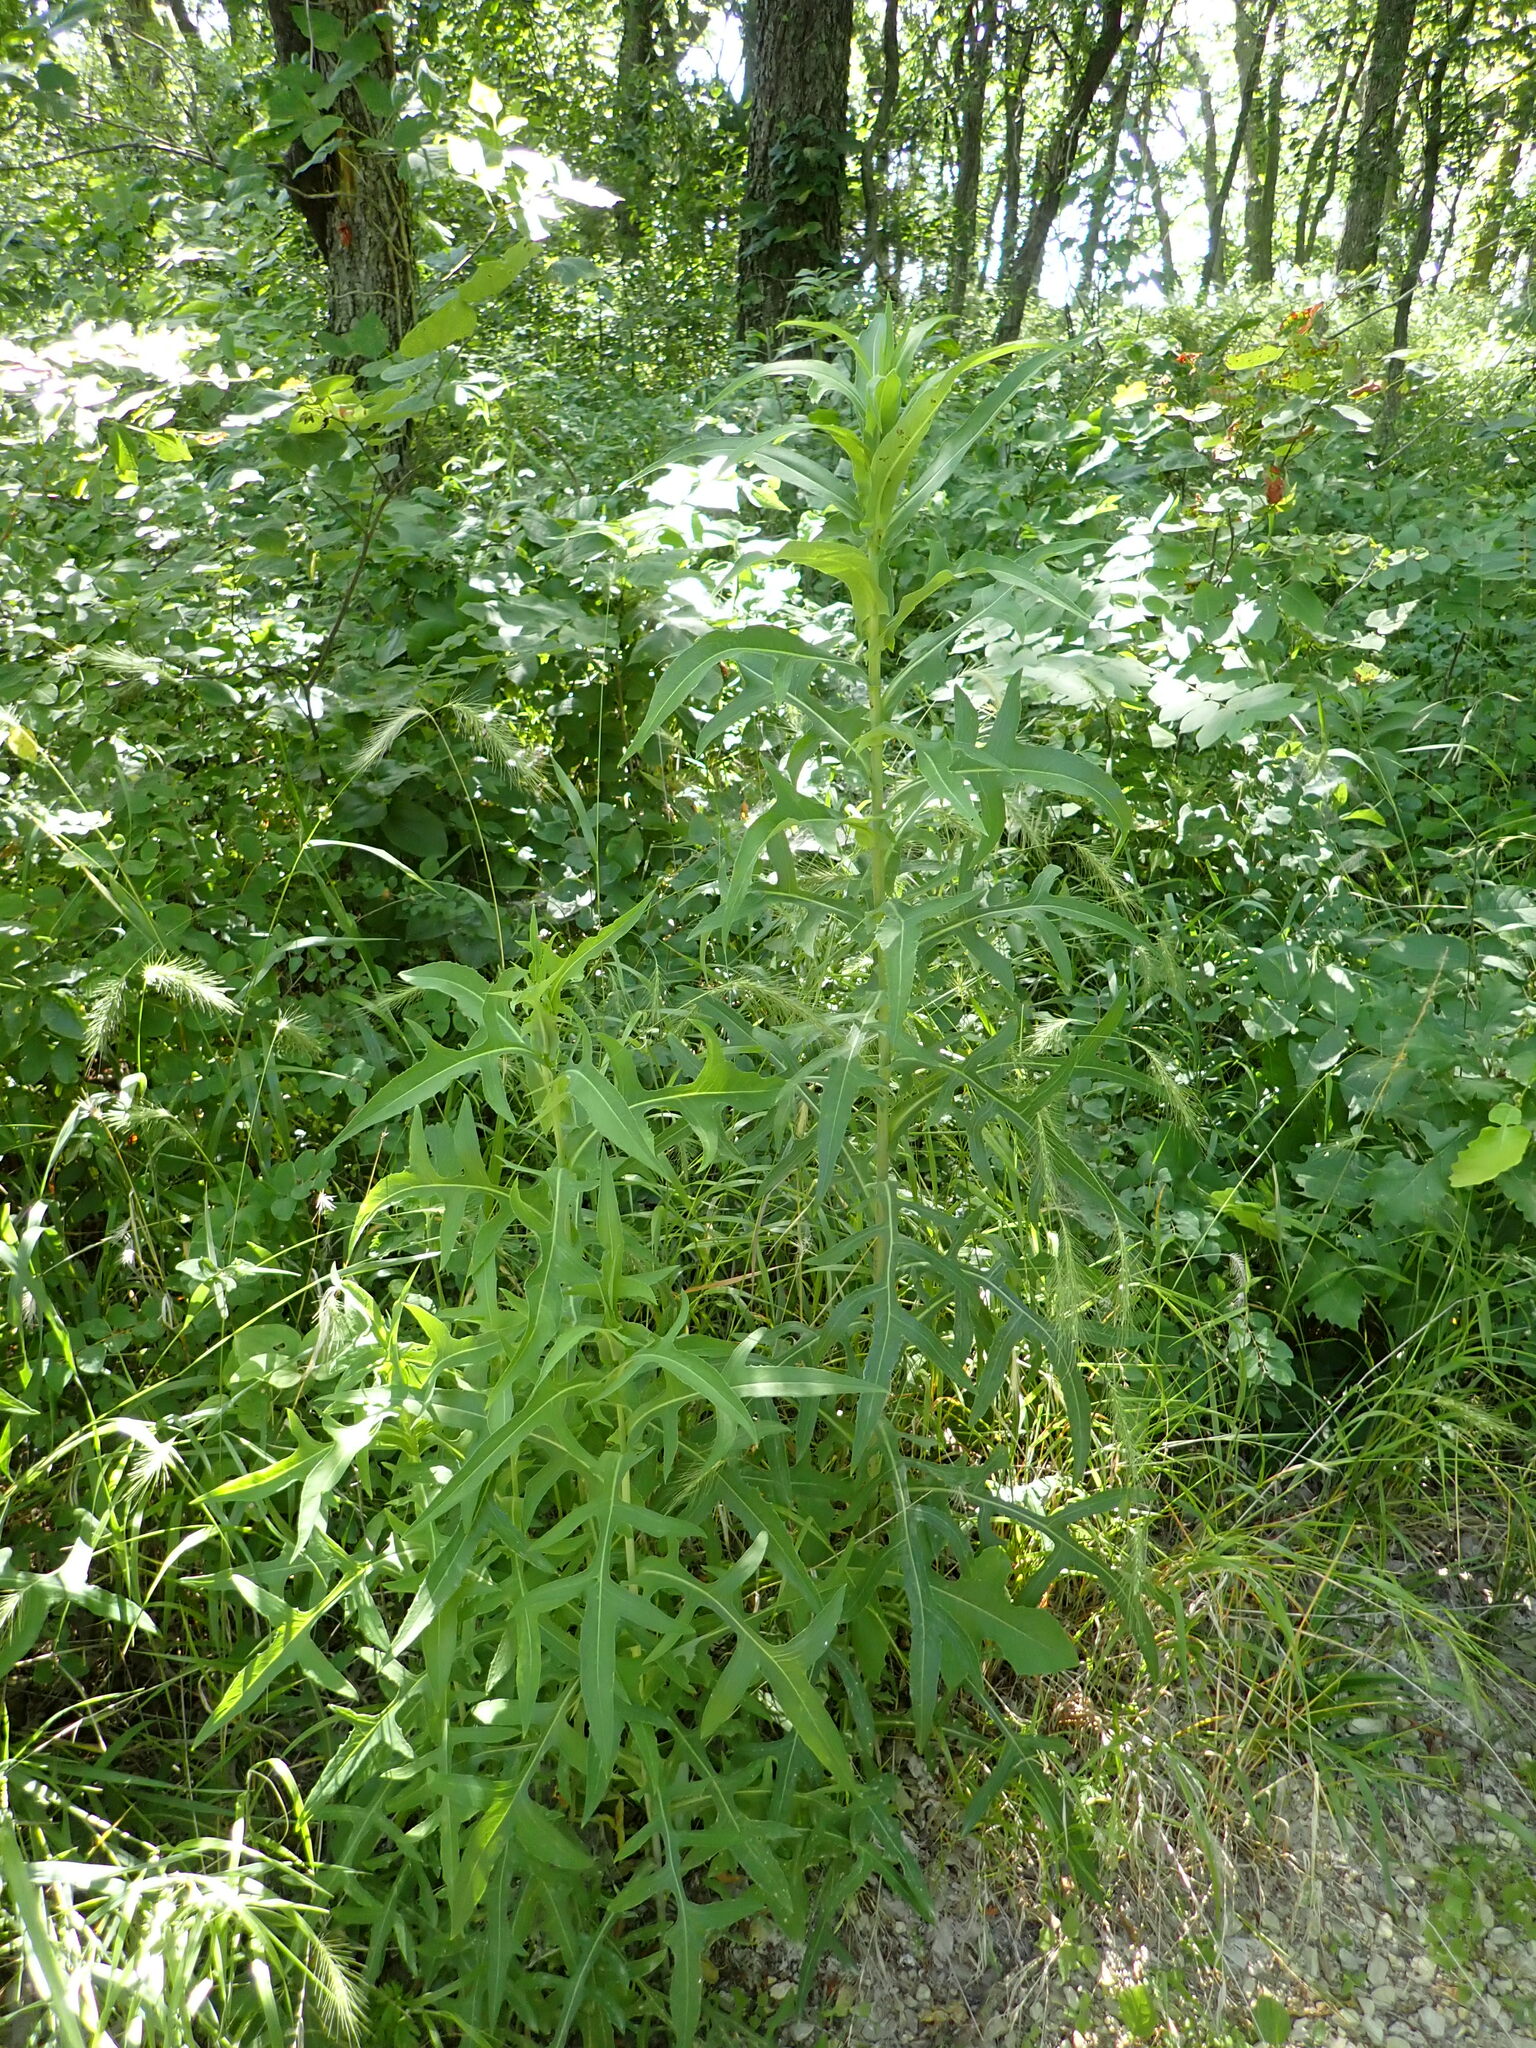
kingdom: Plantae
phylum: Tracheophyta
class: Magnoliopsida
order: Asterales
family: Asteraceae
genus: Lactuca
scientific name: Lactuca canadensis
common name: Canada lettuce
